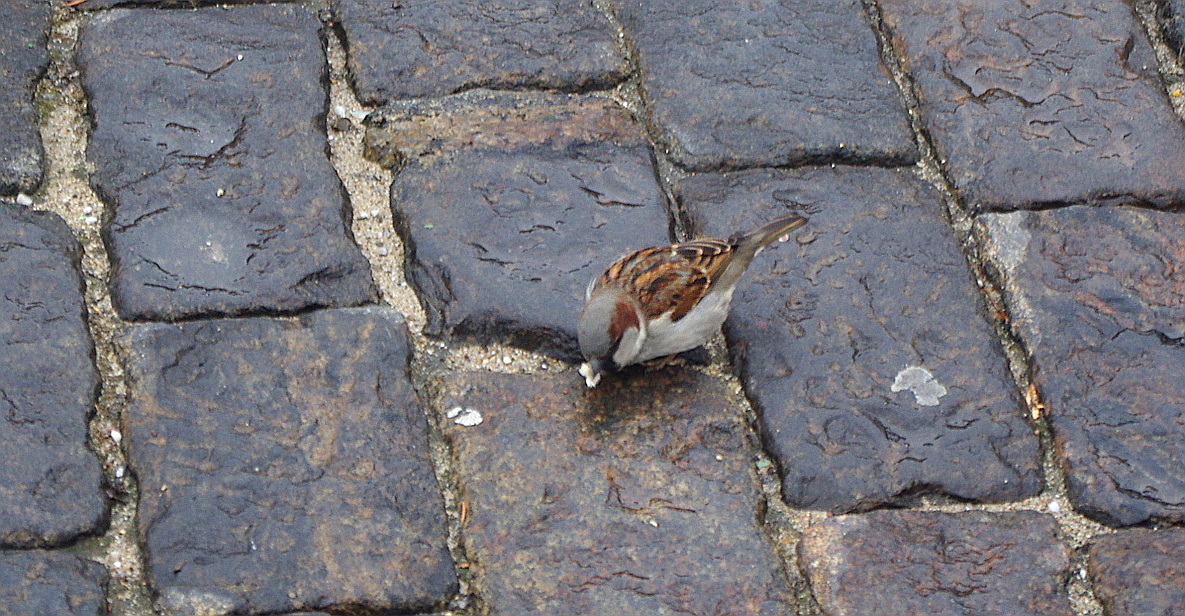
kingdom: Animalia
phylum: Chordata
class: Aves
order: Passeriformes
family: Passeridae
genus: Passer
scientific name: Passer domesticus
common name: House sparrow
